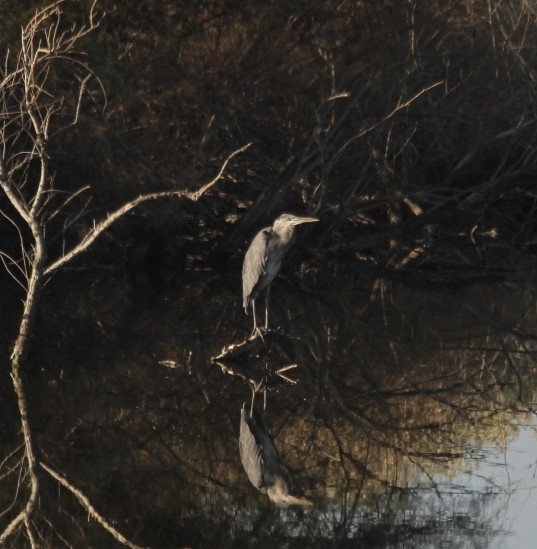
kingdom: Animalia
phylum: Chordata
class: Aves
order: Pelecaniformes
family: Ardeidae
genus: Ardea
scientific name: Ardea herodias
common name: Great blue heron
